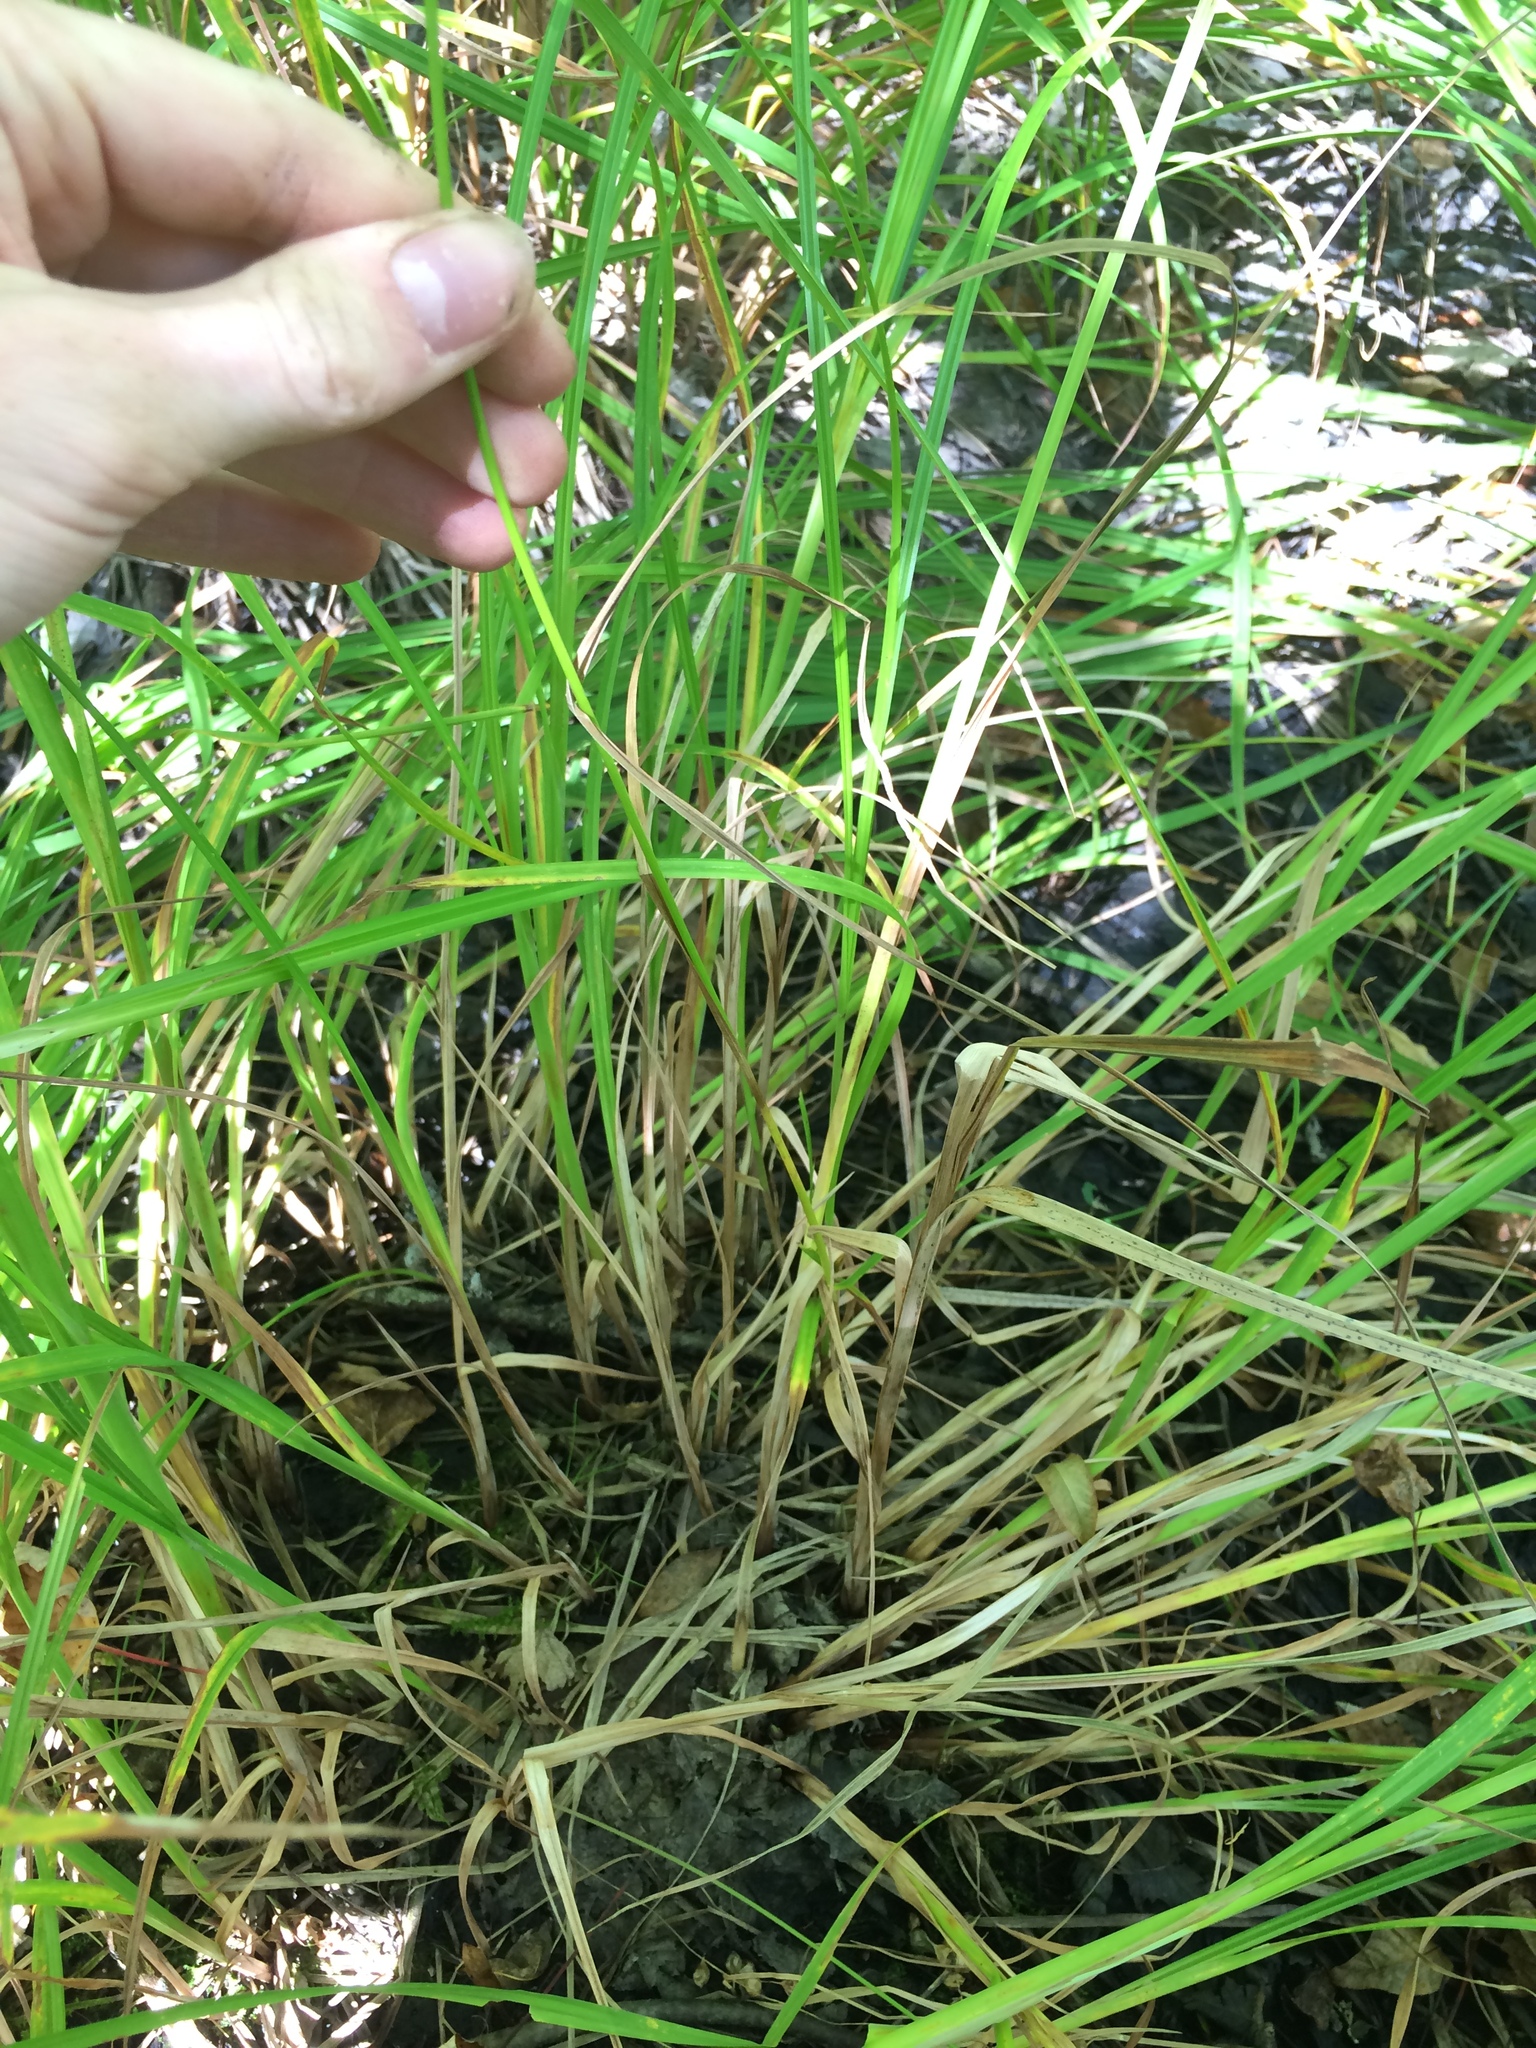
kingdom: Plantae
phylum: Tracheophyta
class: Liliopsida
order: Poales
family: Cyperaceae
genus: Carex
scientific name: Carex tuckermanii
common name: Tuckerman's sedge
